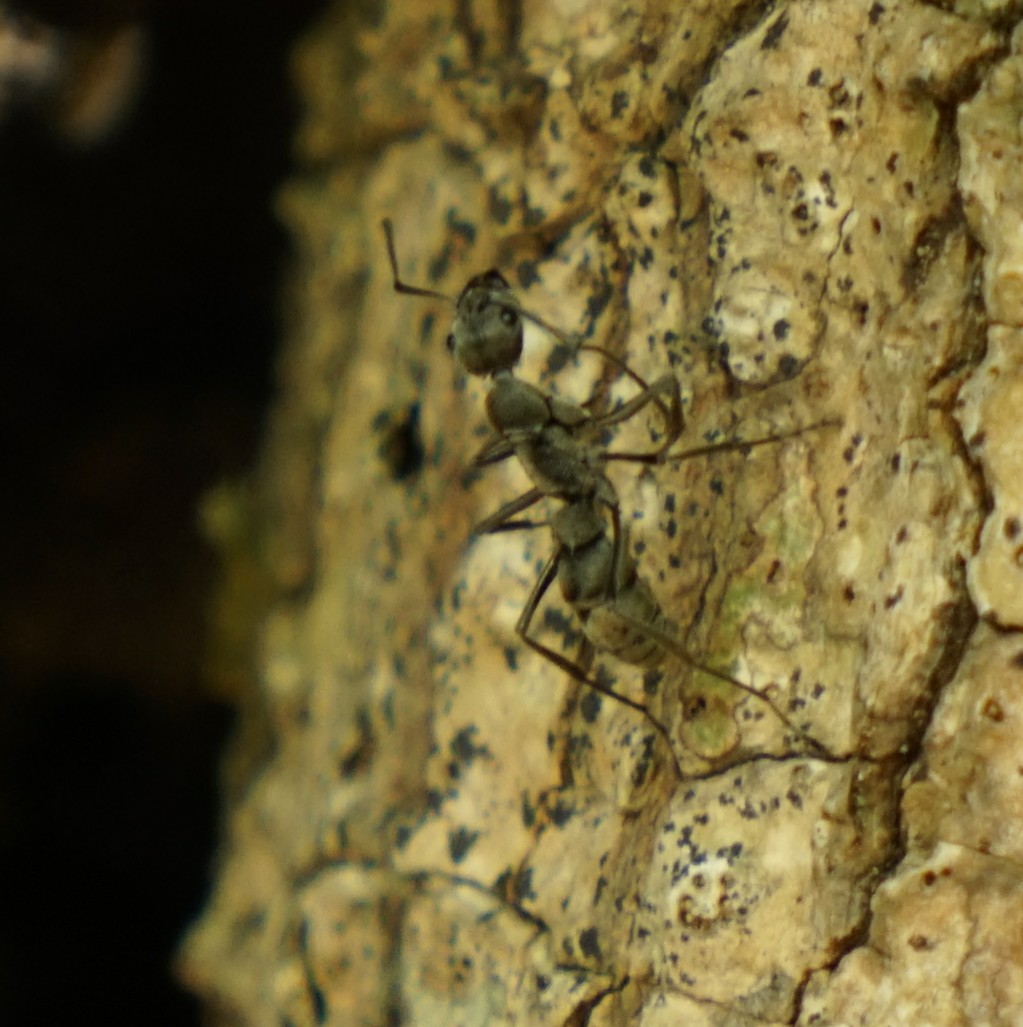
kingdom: Animalia
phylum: Arthropoda
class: Insecta
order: Hymenoptera
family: Formicidae
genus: Diacamma
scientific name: Diacamma
